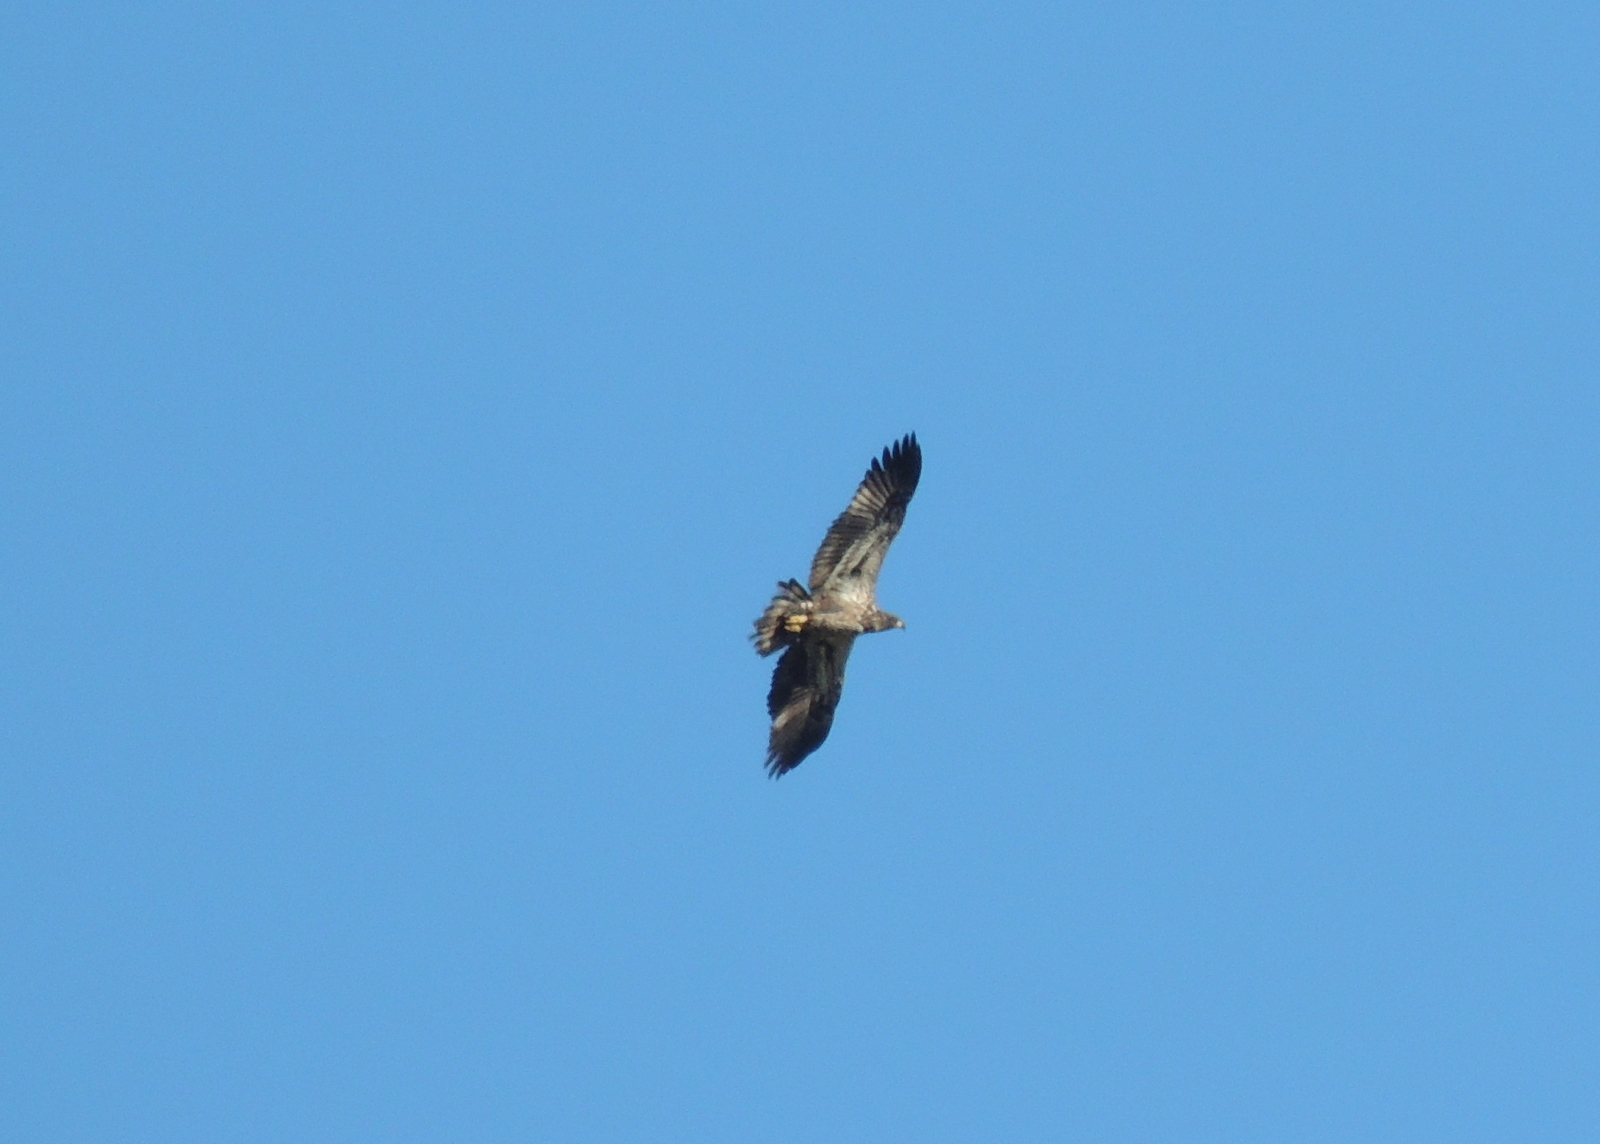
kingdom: Animalia
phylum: Chordata
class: Aves
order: Accipitriformes
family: Accipitridae
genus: Haliaeetus
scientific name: Haliaeetus leucocephalus
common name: Bald eagle
